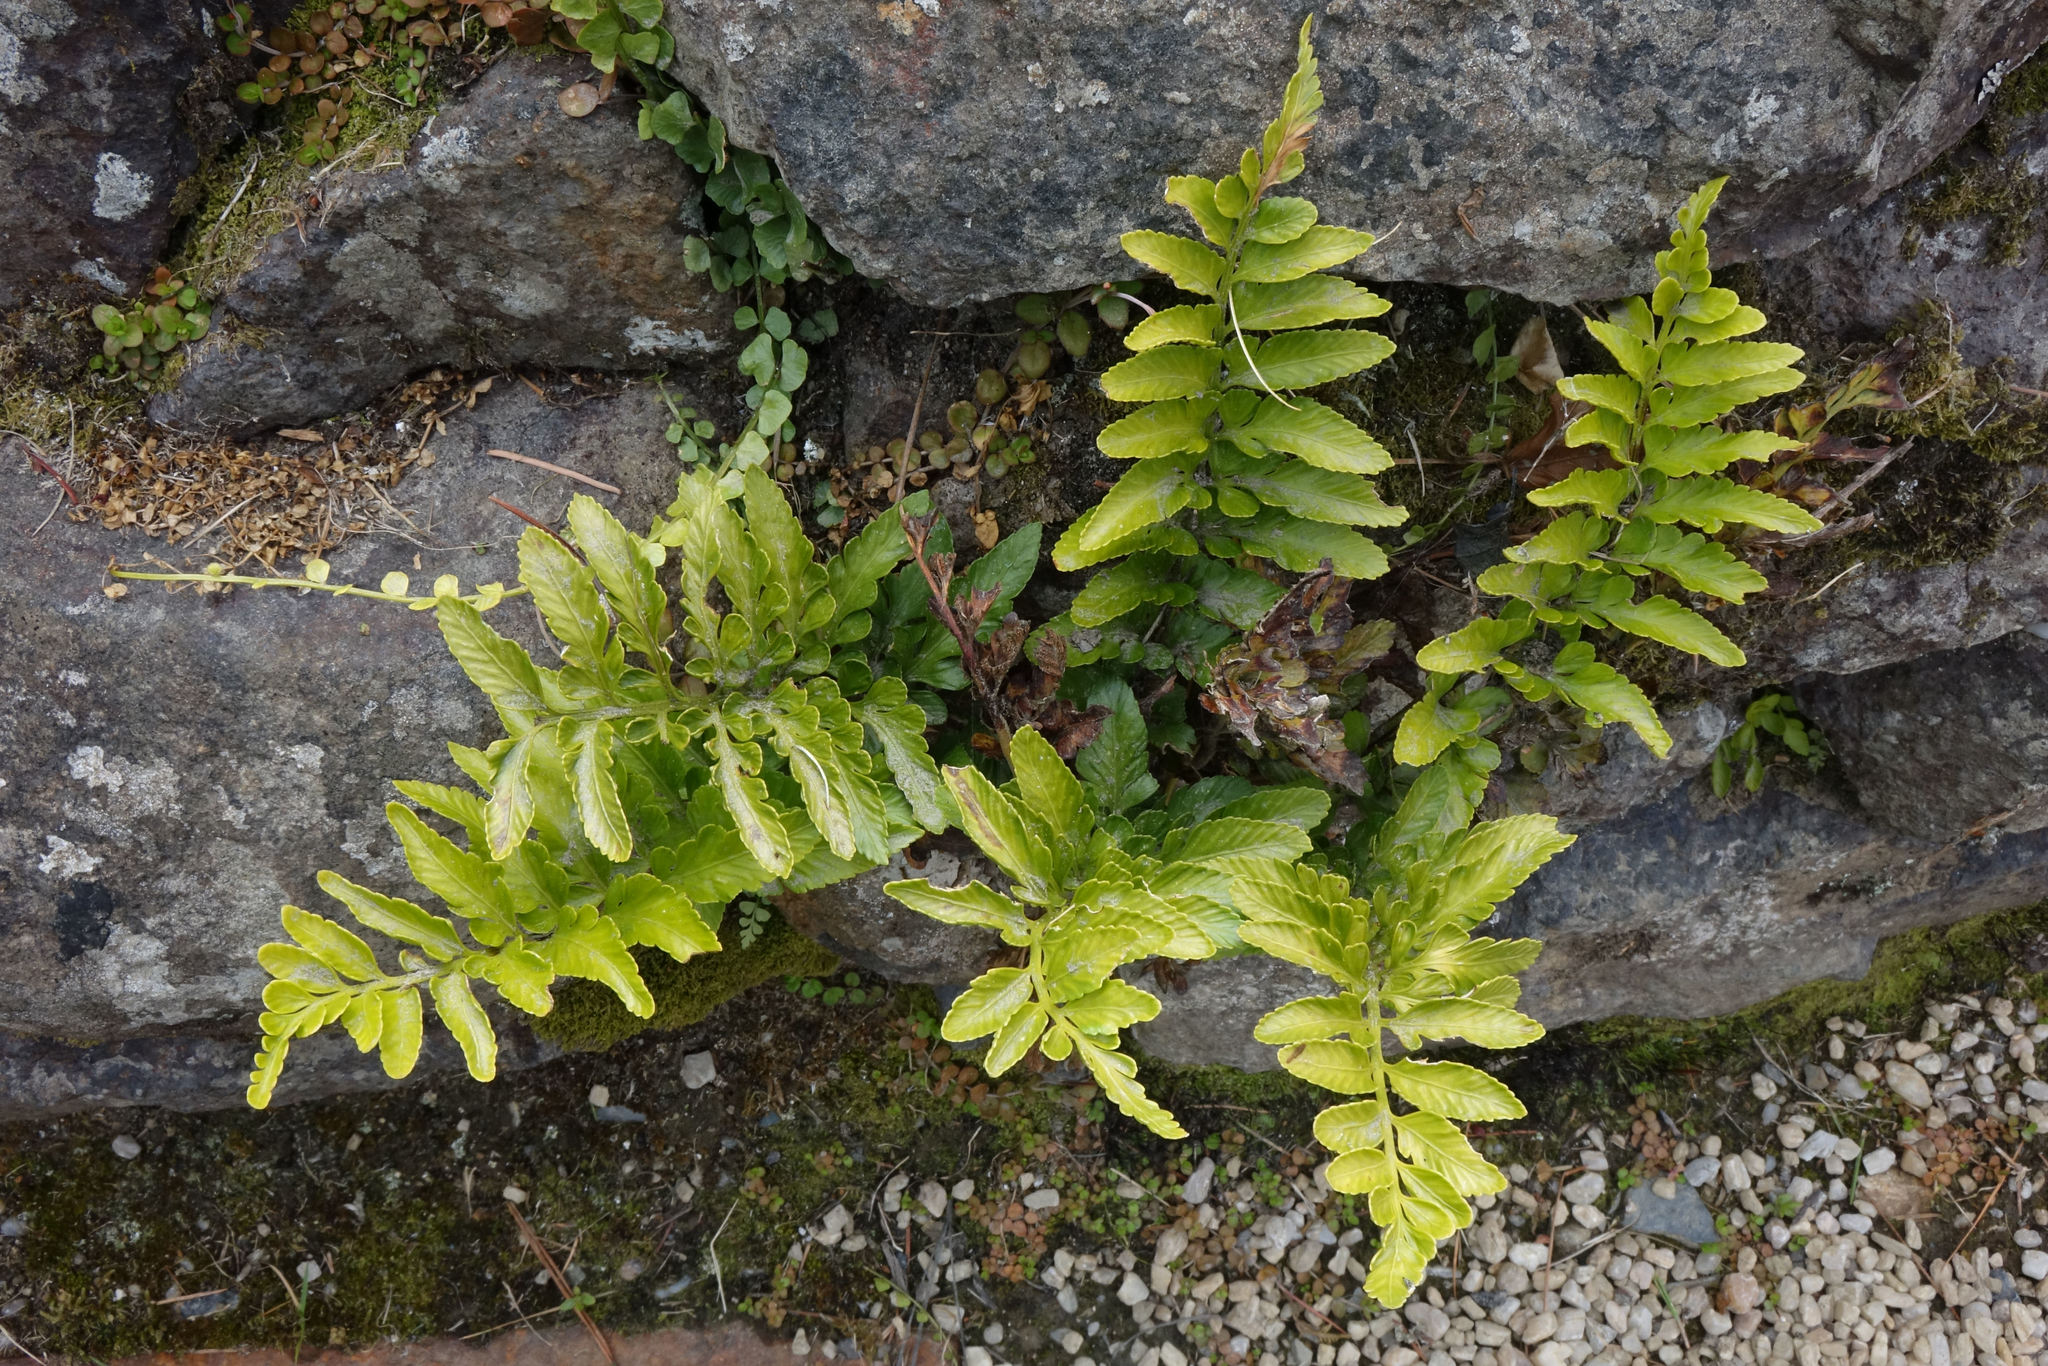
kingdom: Plantae
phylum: Tracheophyta
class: Polypodiopsida
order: Polypodiales
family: Aspleniaceae
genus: Asplenium
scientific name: Asplenium lyallii
